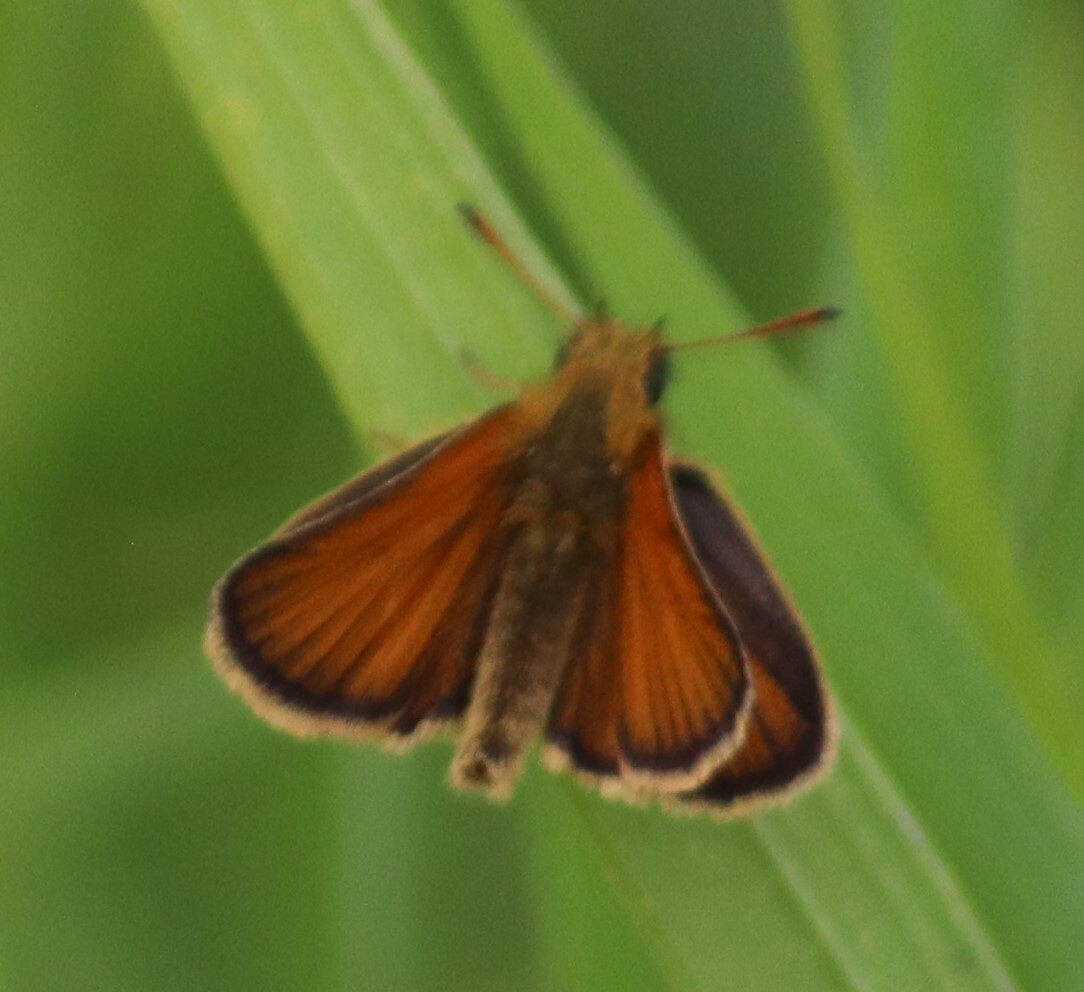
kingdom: Animalia
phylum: Arthropoda
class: Insecta
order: Lepidoptera
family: Hesperiidae
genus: Thymelicus
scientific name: Thymelicus lineola
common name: Essex skipper
